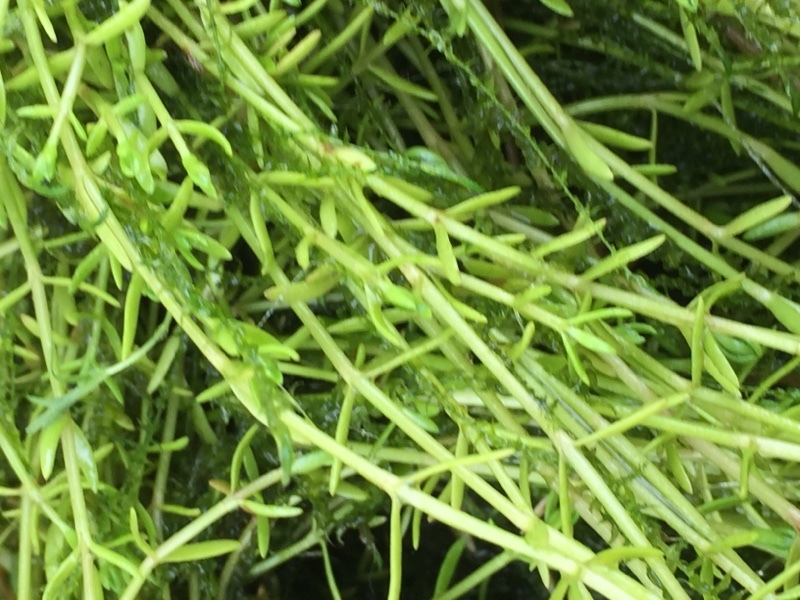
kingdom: Plantae
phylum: Tracheophyta
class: Magnoliopsida
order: Saxifragales
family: Crassulaceae
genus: Crassula
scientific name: Crassula helmsii
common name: New zealand pigmyweed
